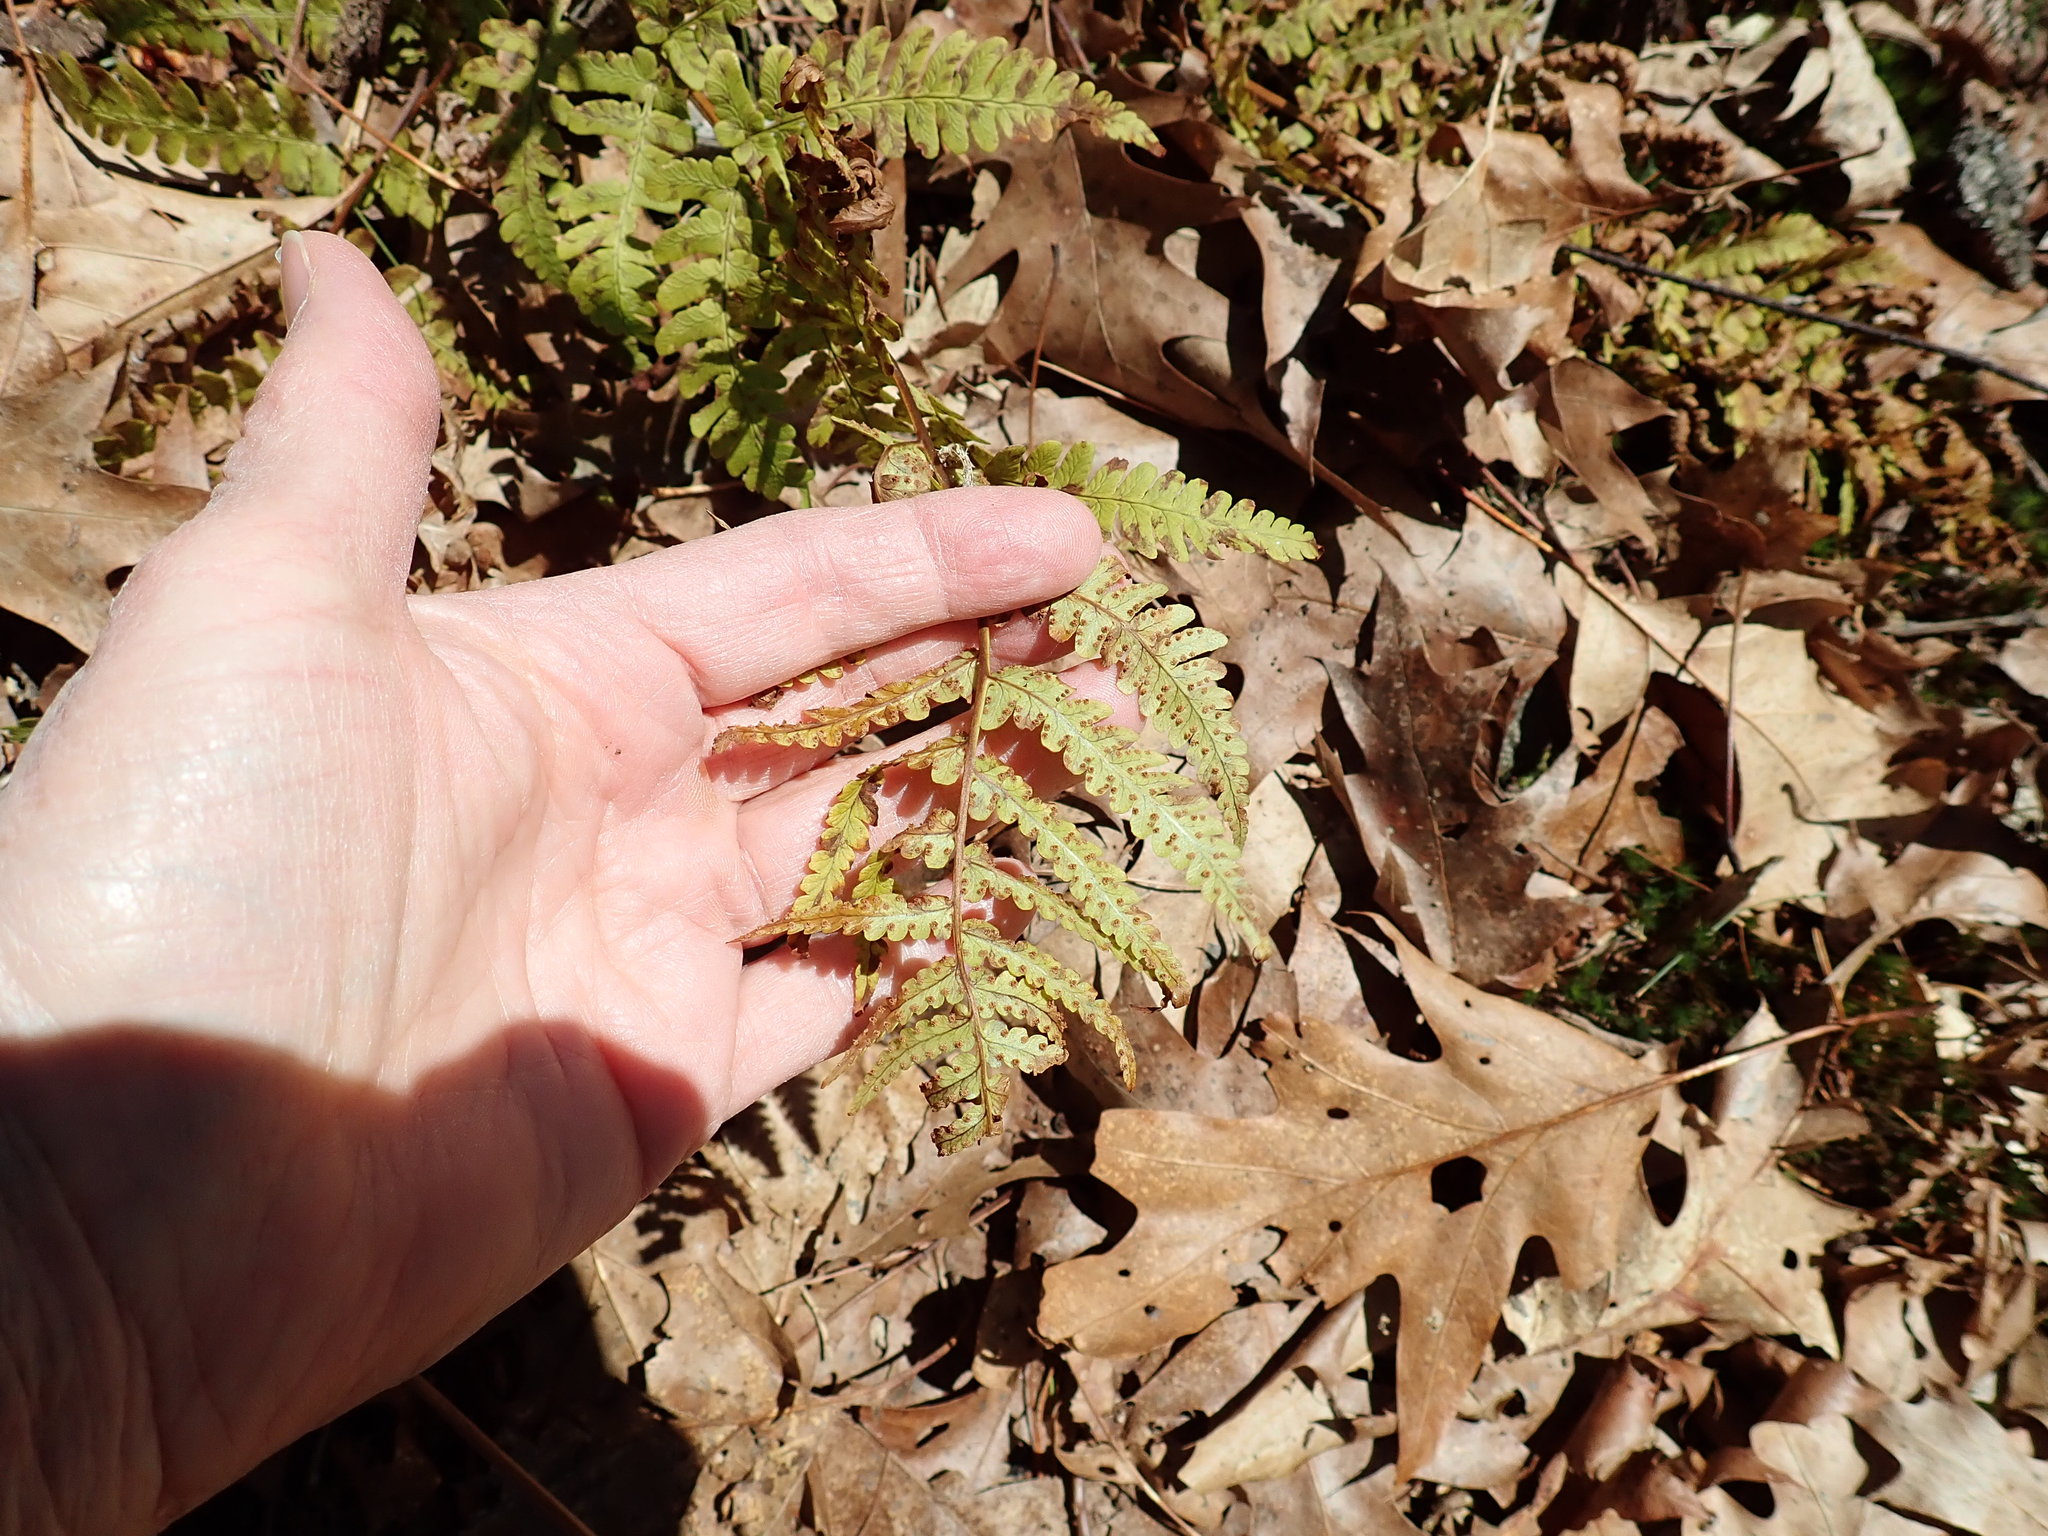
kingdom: Plantae
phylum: Tracheophyta
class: Polypodiopsida
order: Polypodiales
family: Dryopteridaceae
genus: Dryopteris
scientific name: Dryopteris marginalis
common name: Marginal wood fern
